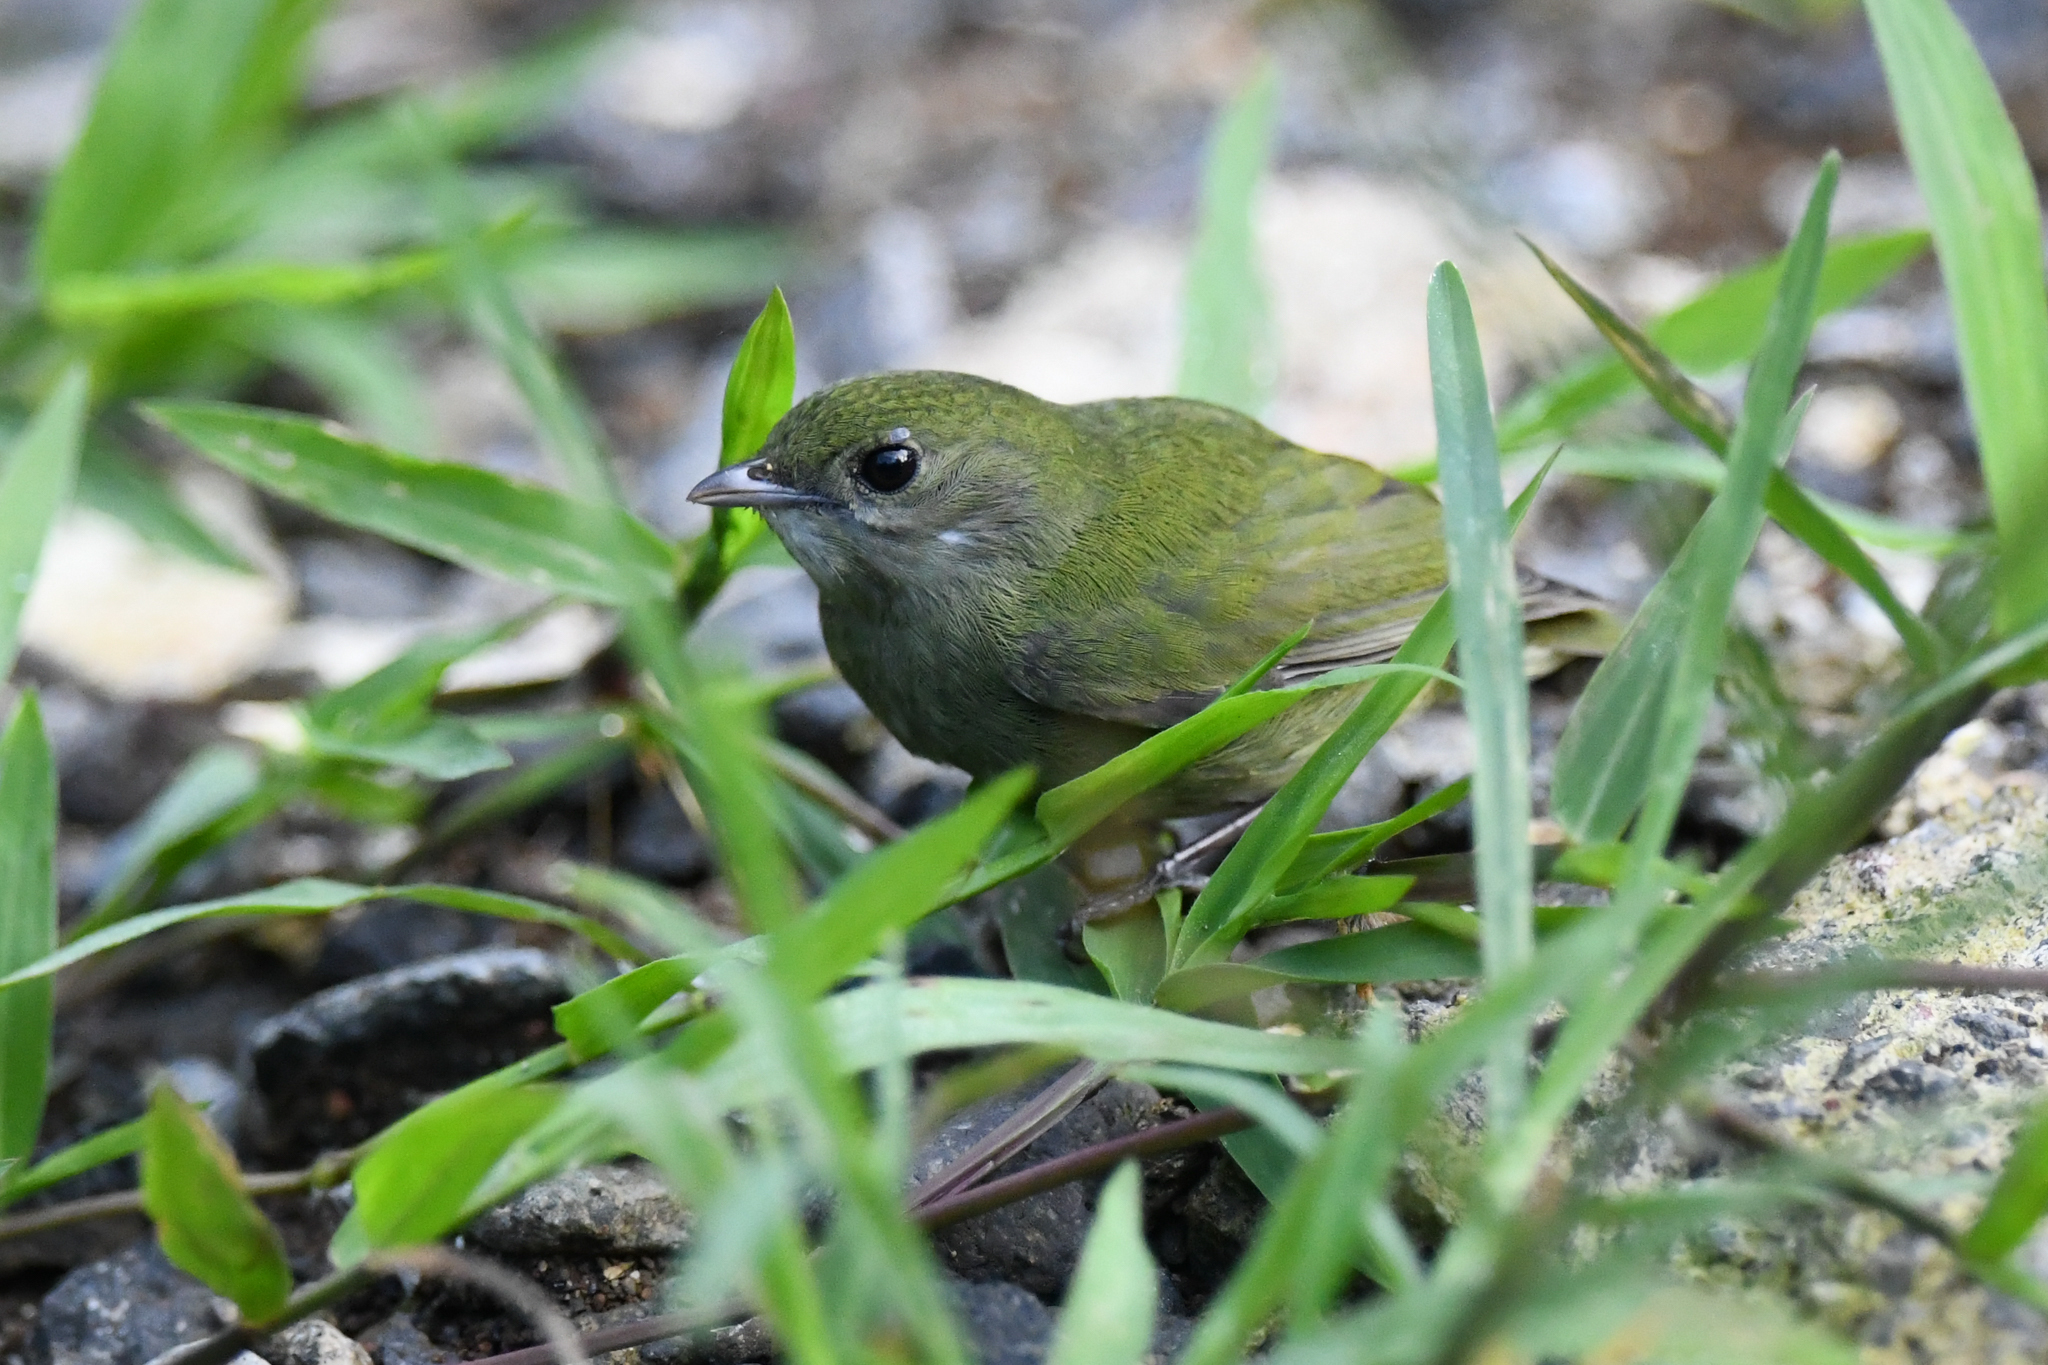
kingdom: Animalia
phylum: Chordata
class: Aves
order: Passeriformes
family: Pipridae
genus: Corapipo
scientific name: Corapipo altera
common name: White-ruffed manakin
